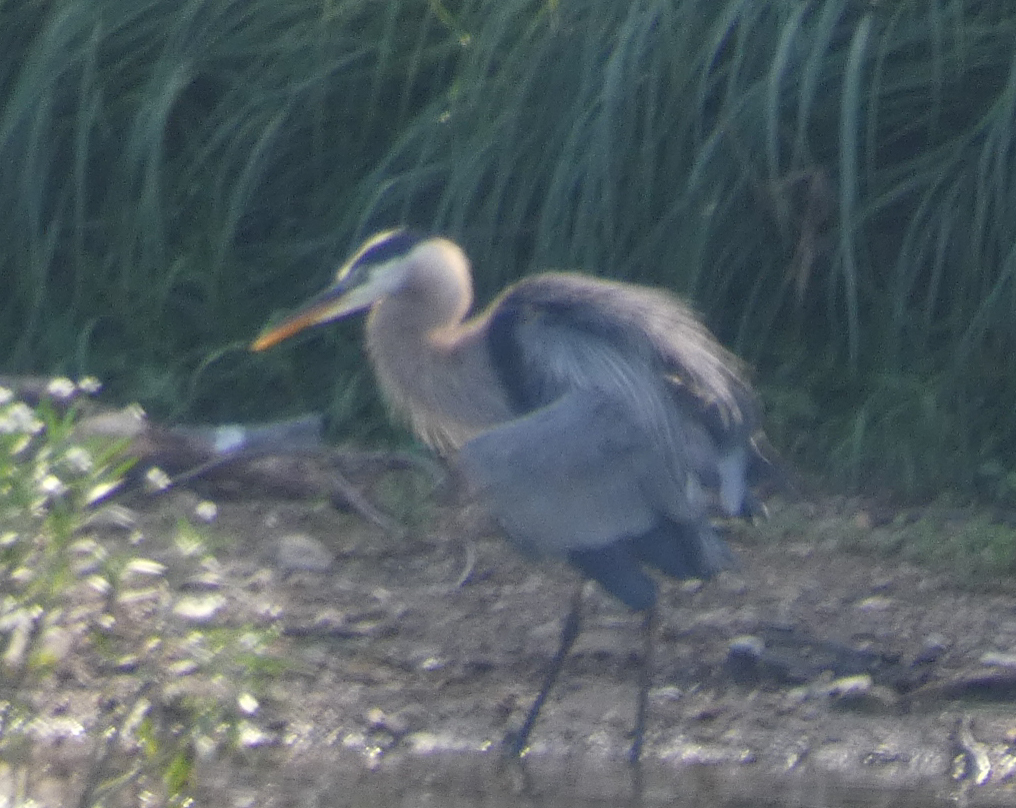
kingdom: Animalia
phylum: Chordata
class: Aves
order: Pelecaniformes
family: Ardeidae
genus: Ardea
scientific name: Ardea herodias
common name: Great blue heron
